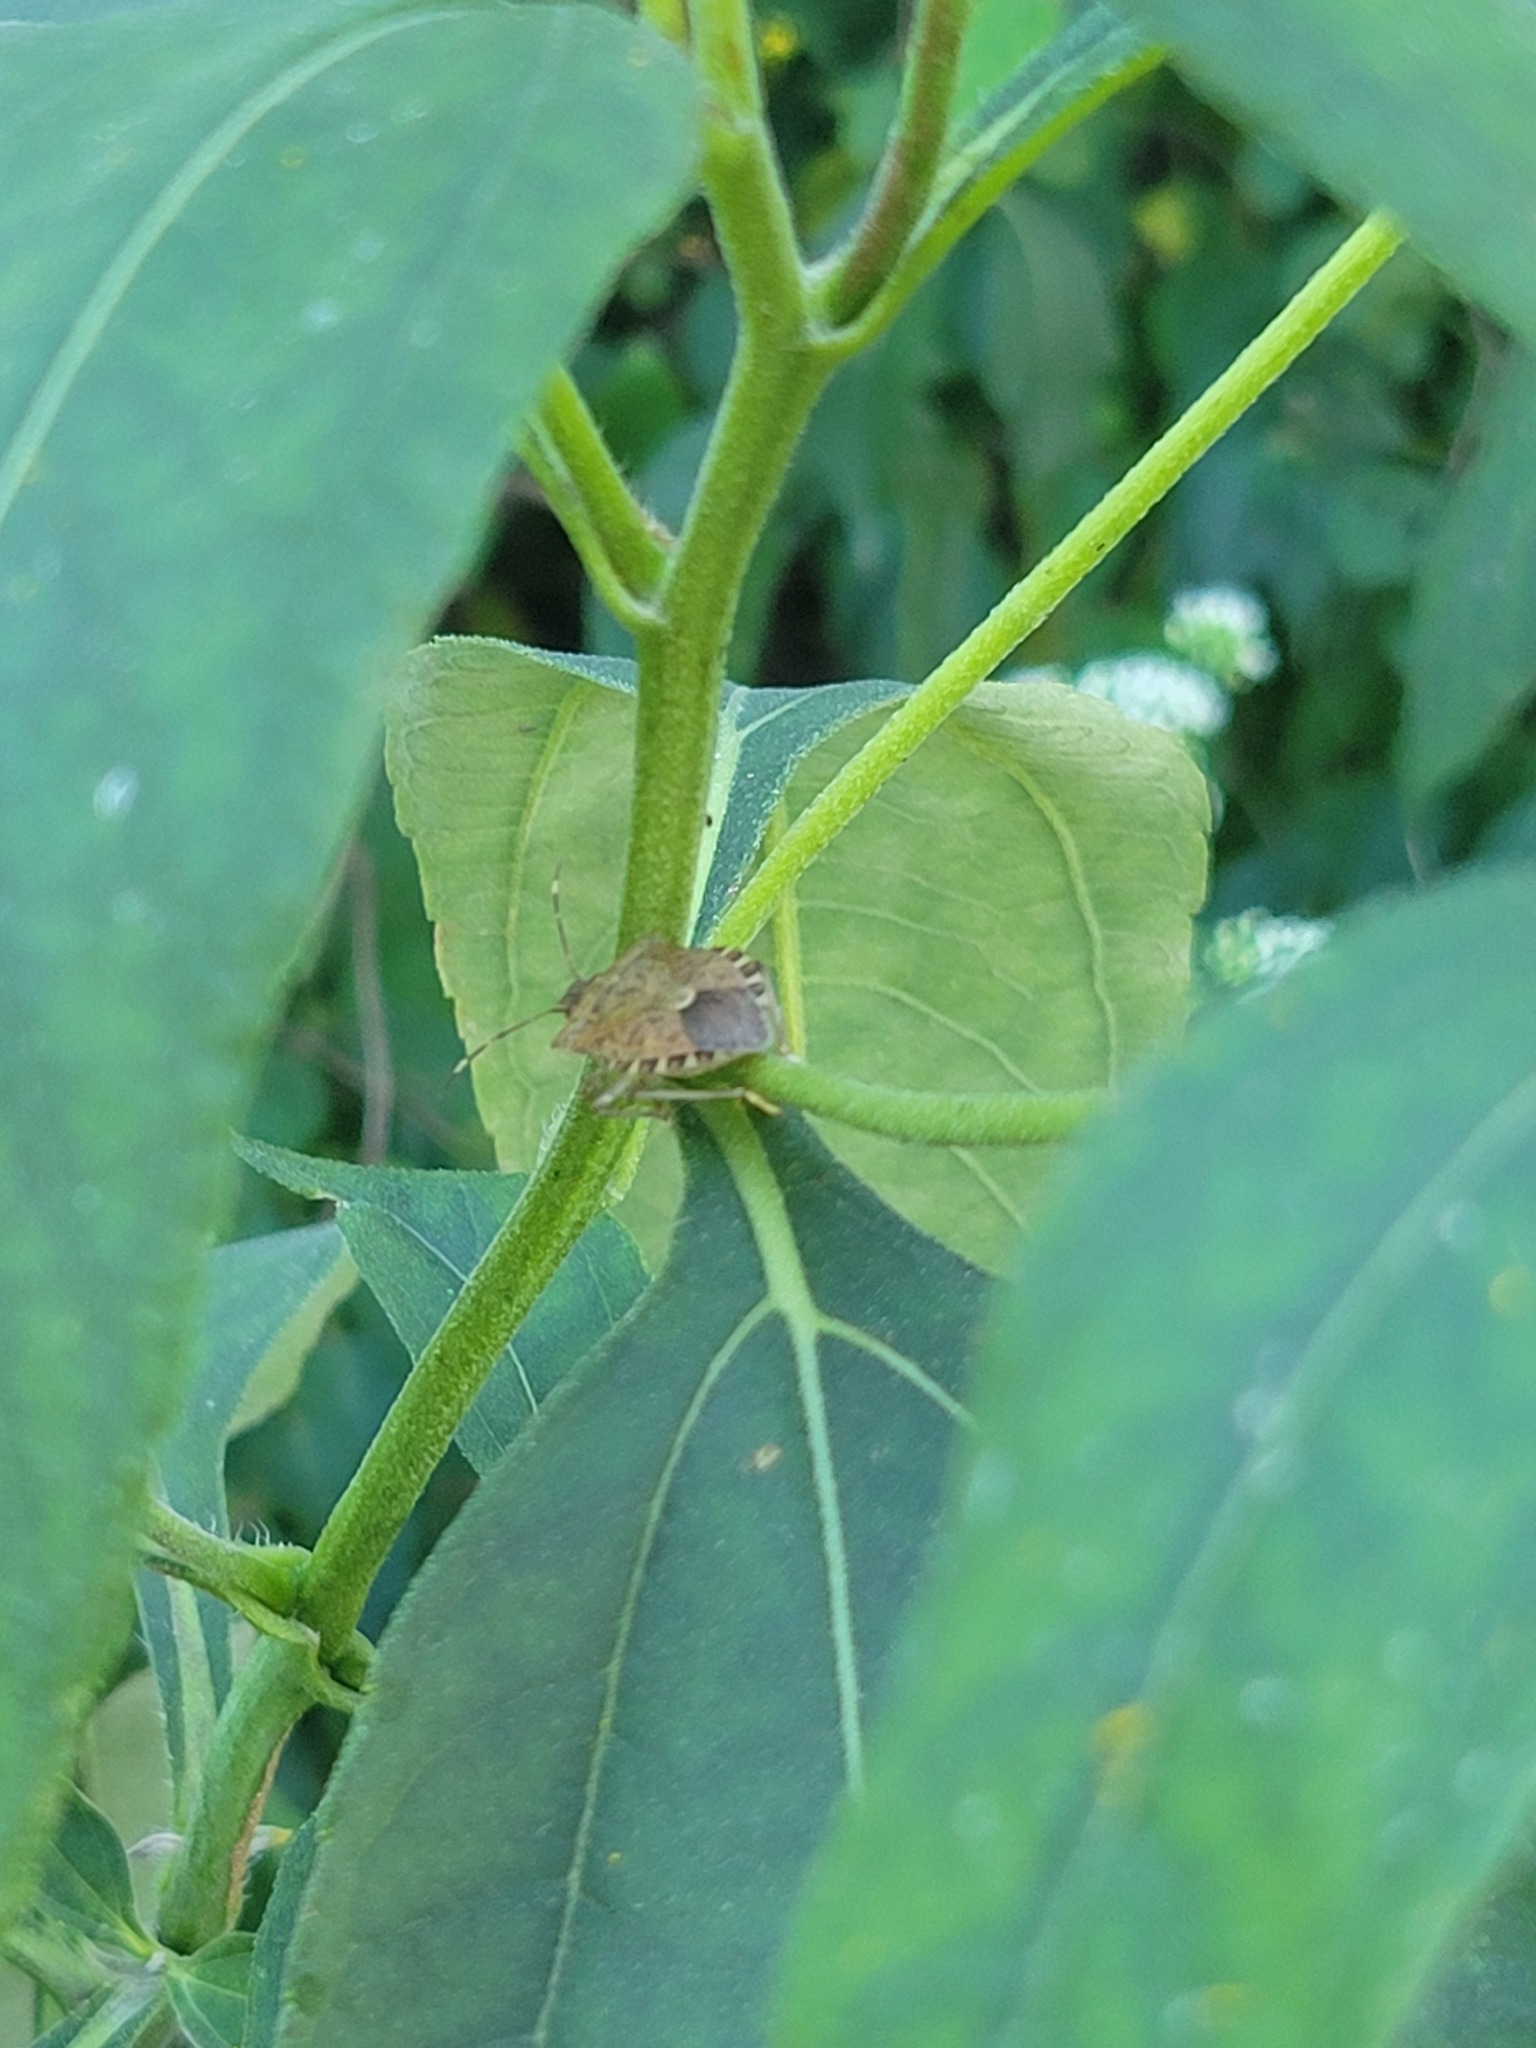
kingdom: Animalia
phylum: Arthropoda
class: Insecta
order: Hemiptera
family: Pentatomidae
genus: Halyomorpha
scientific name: Halyomorpha halys
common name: Brown marmorated stink bug
